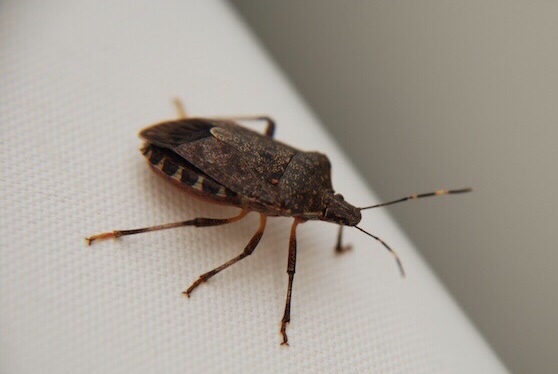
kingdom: Animalia
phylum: Arthropoda
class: Insecta
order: Hemiptera
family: Pentatomidae
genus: Halyomorpha
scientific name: Halyomorpha halys
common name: Brown marmorated stink bug
